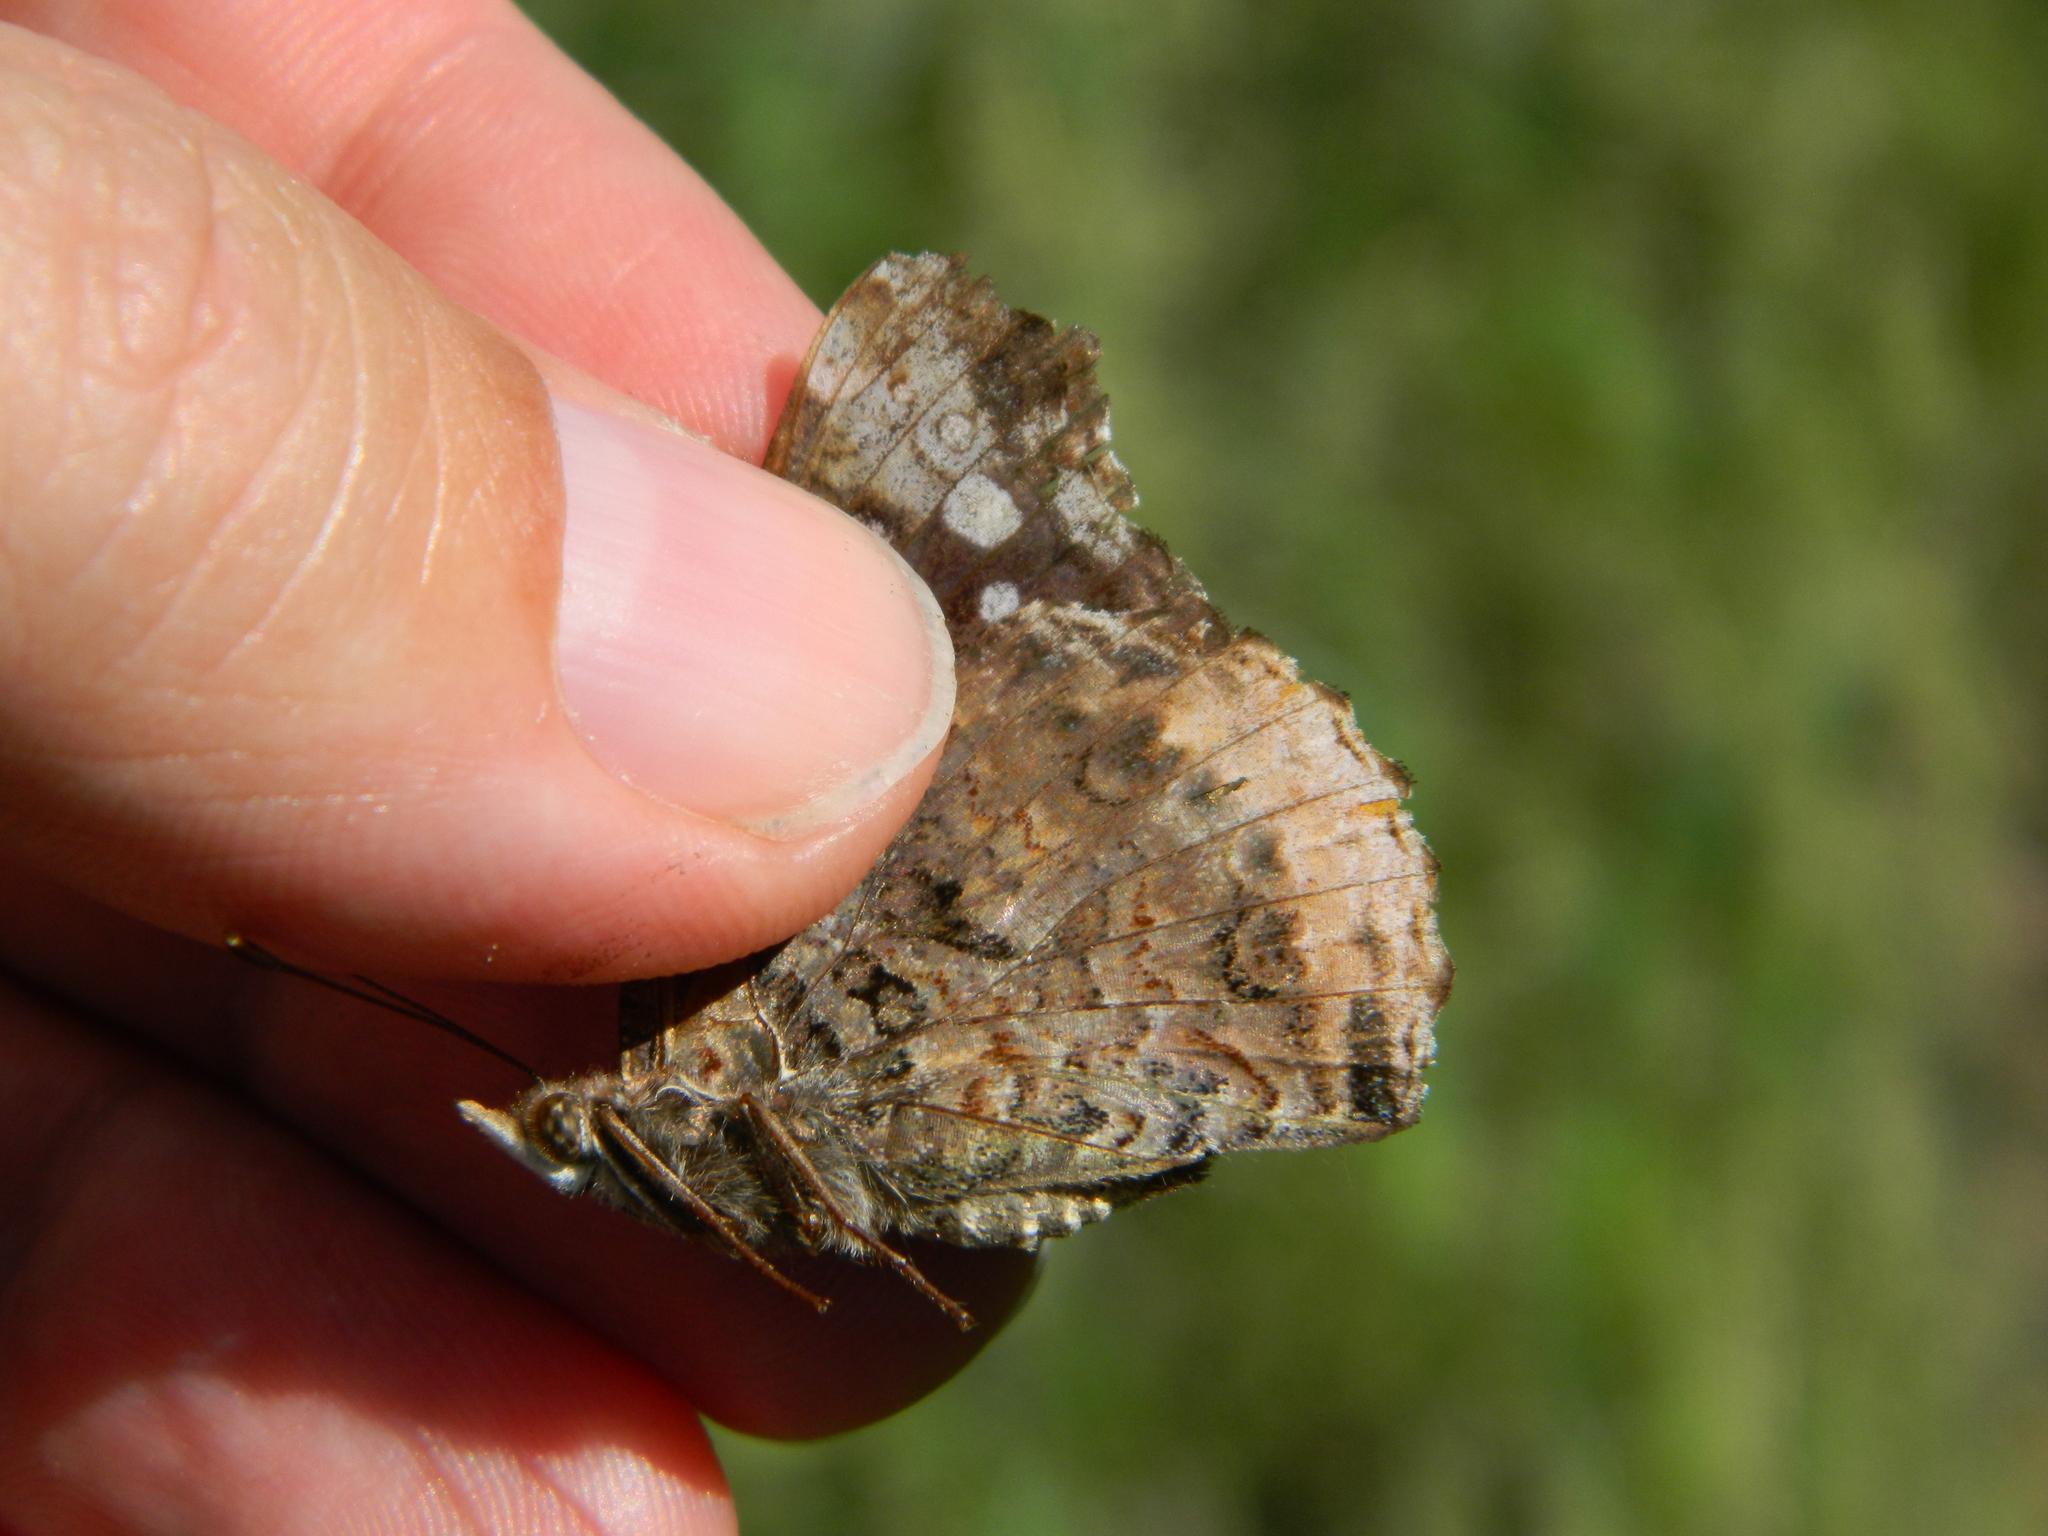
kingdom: Animalia
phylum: Arthropoda
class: Insecta
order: Lepidoptera
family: Nymphalidae
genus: Vanessa
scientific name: Vanessa atalanta
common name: Red admiral
